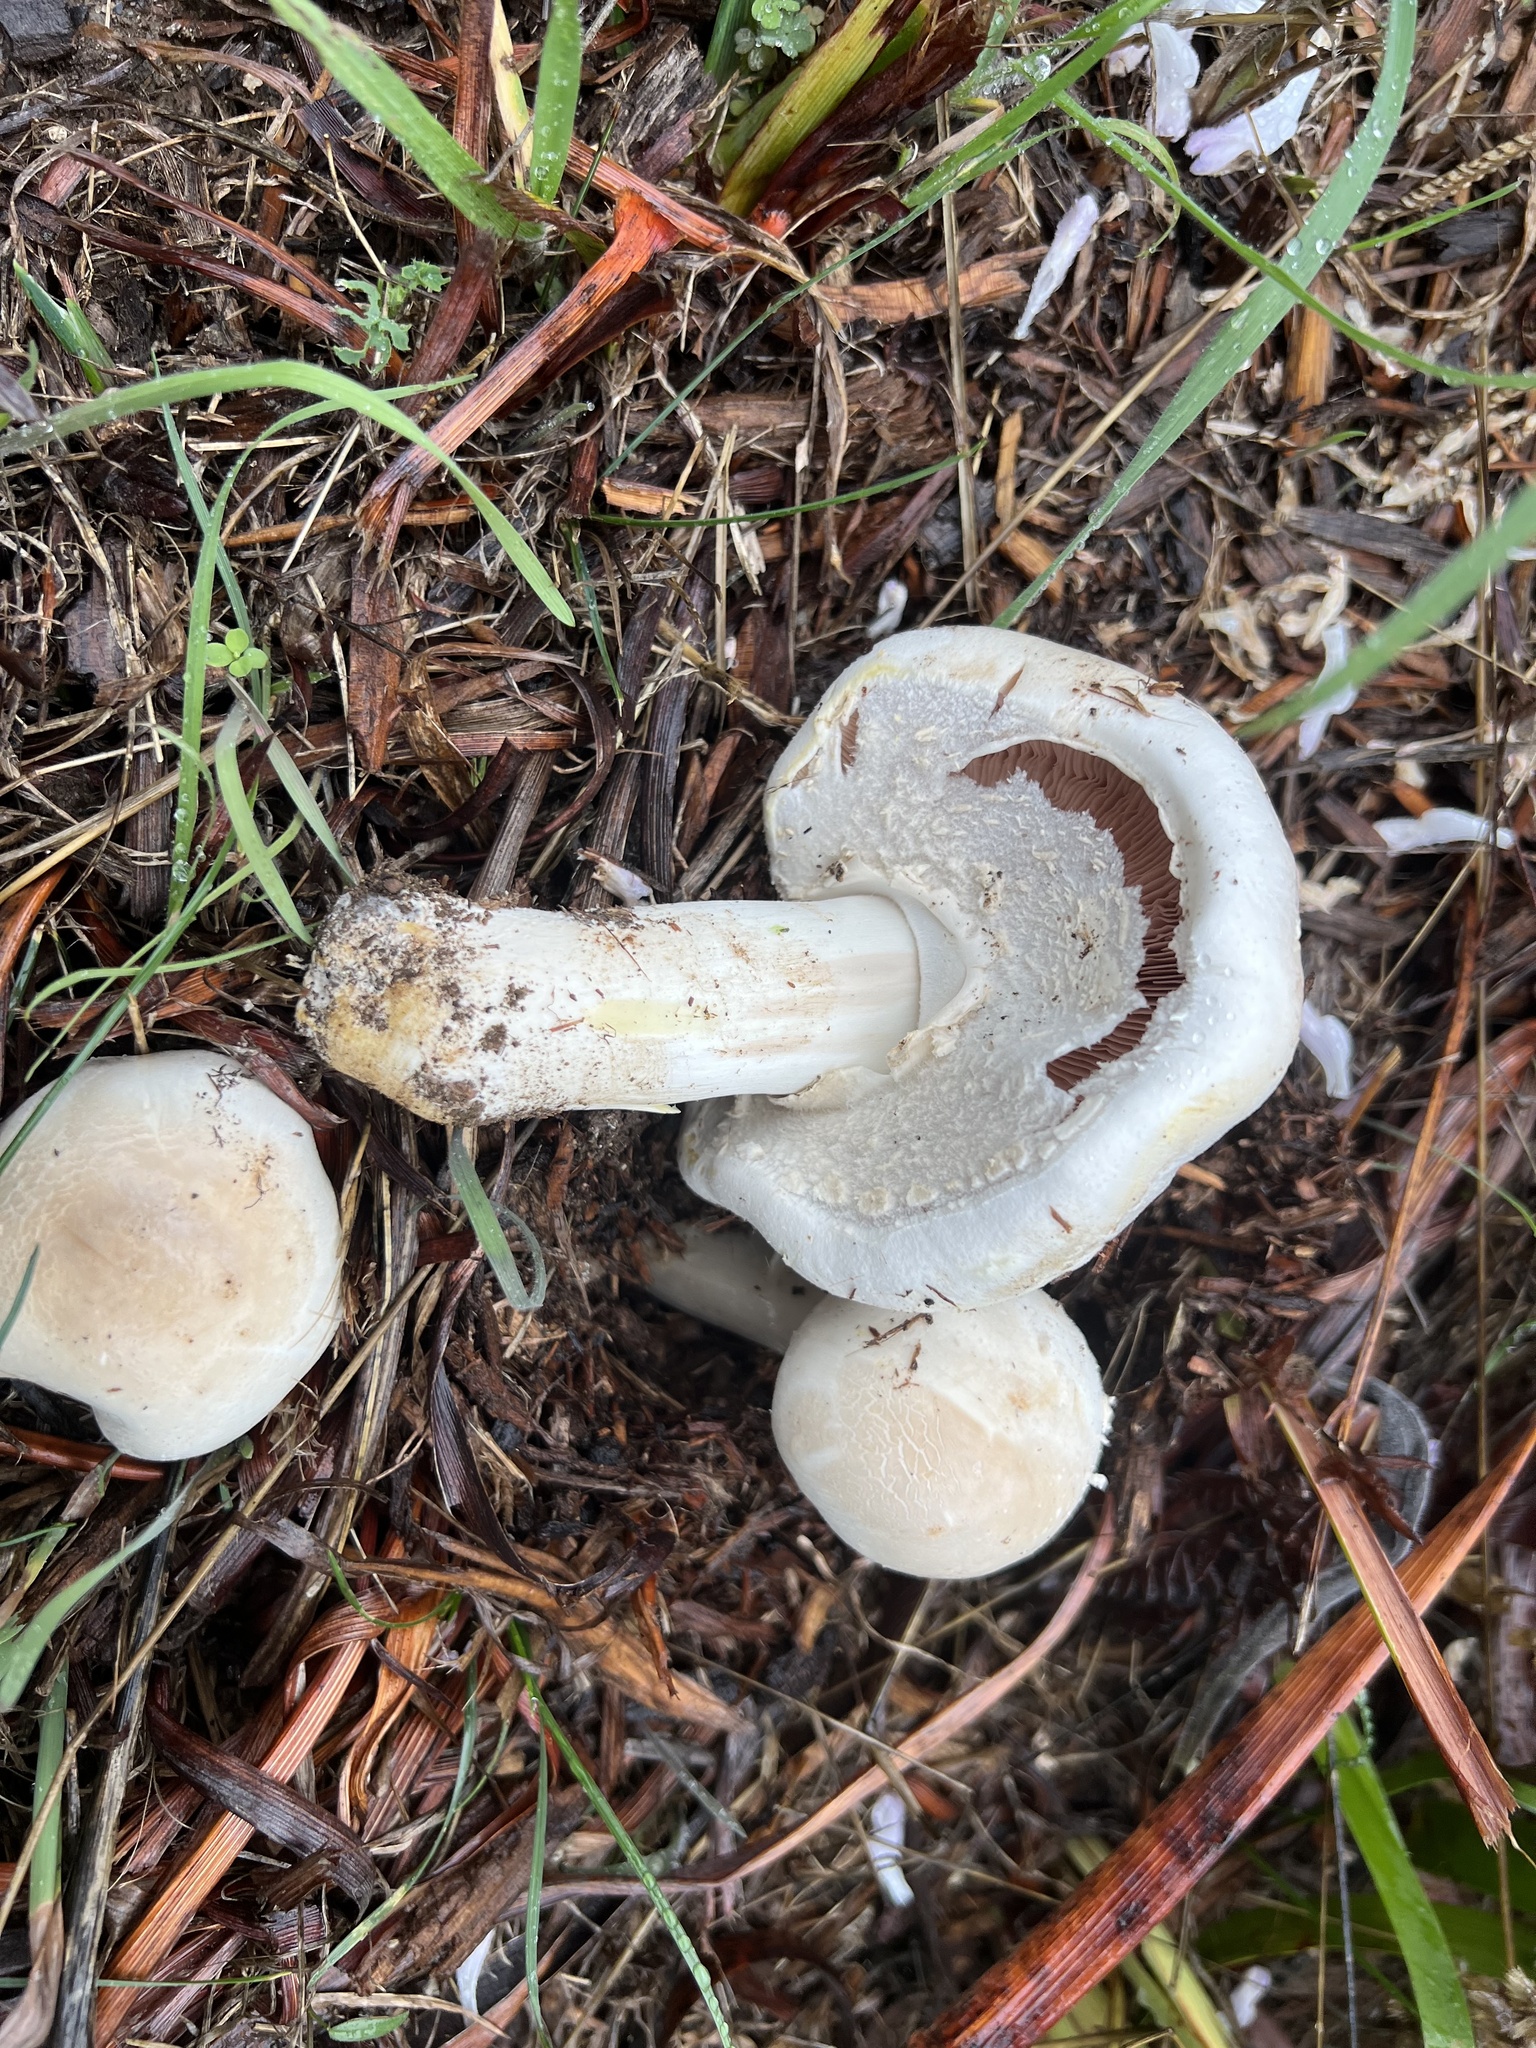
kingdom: Fungi
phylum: Basidiomycota
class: Agaricomycetes
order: Agaricales
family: Agaricaceae
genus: Agaricus
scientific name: Agaricus xanthodermus
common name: Yellow stainer
